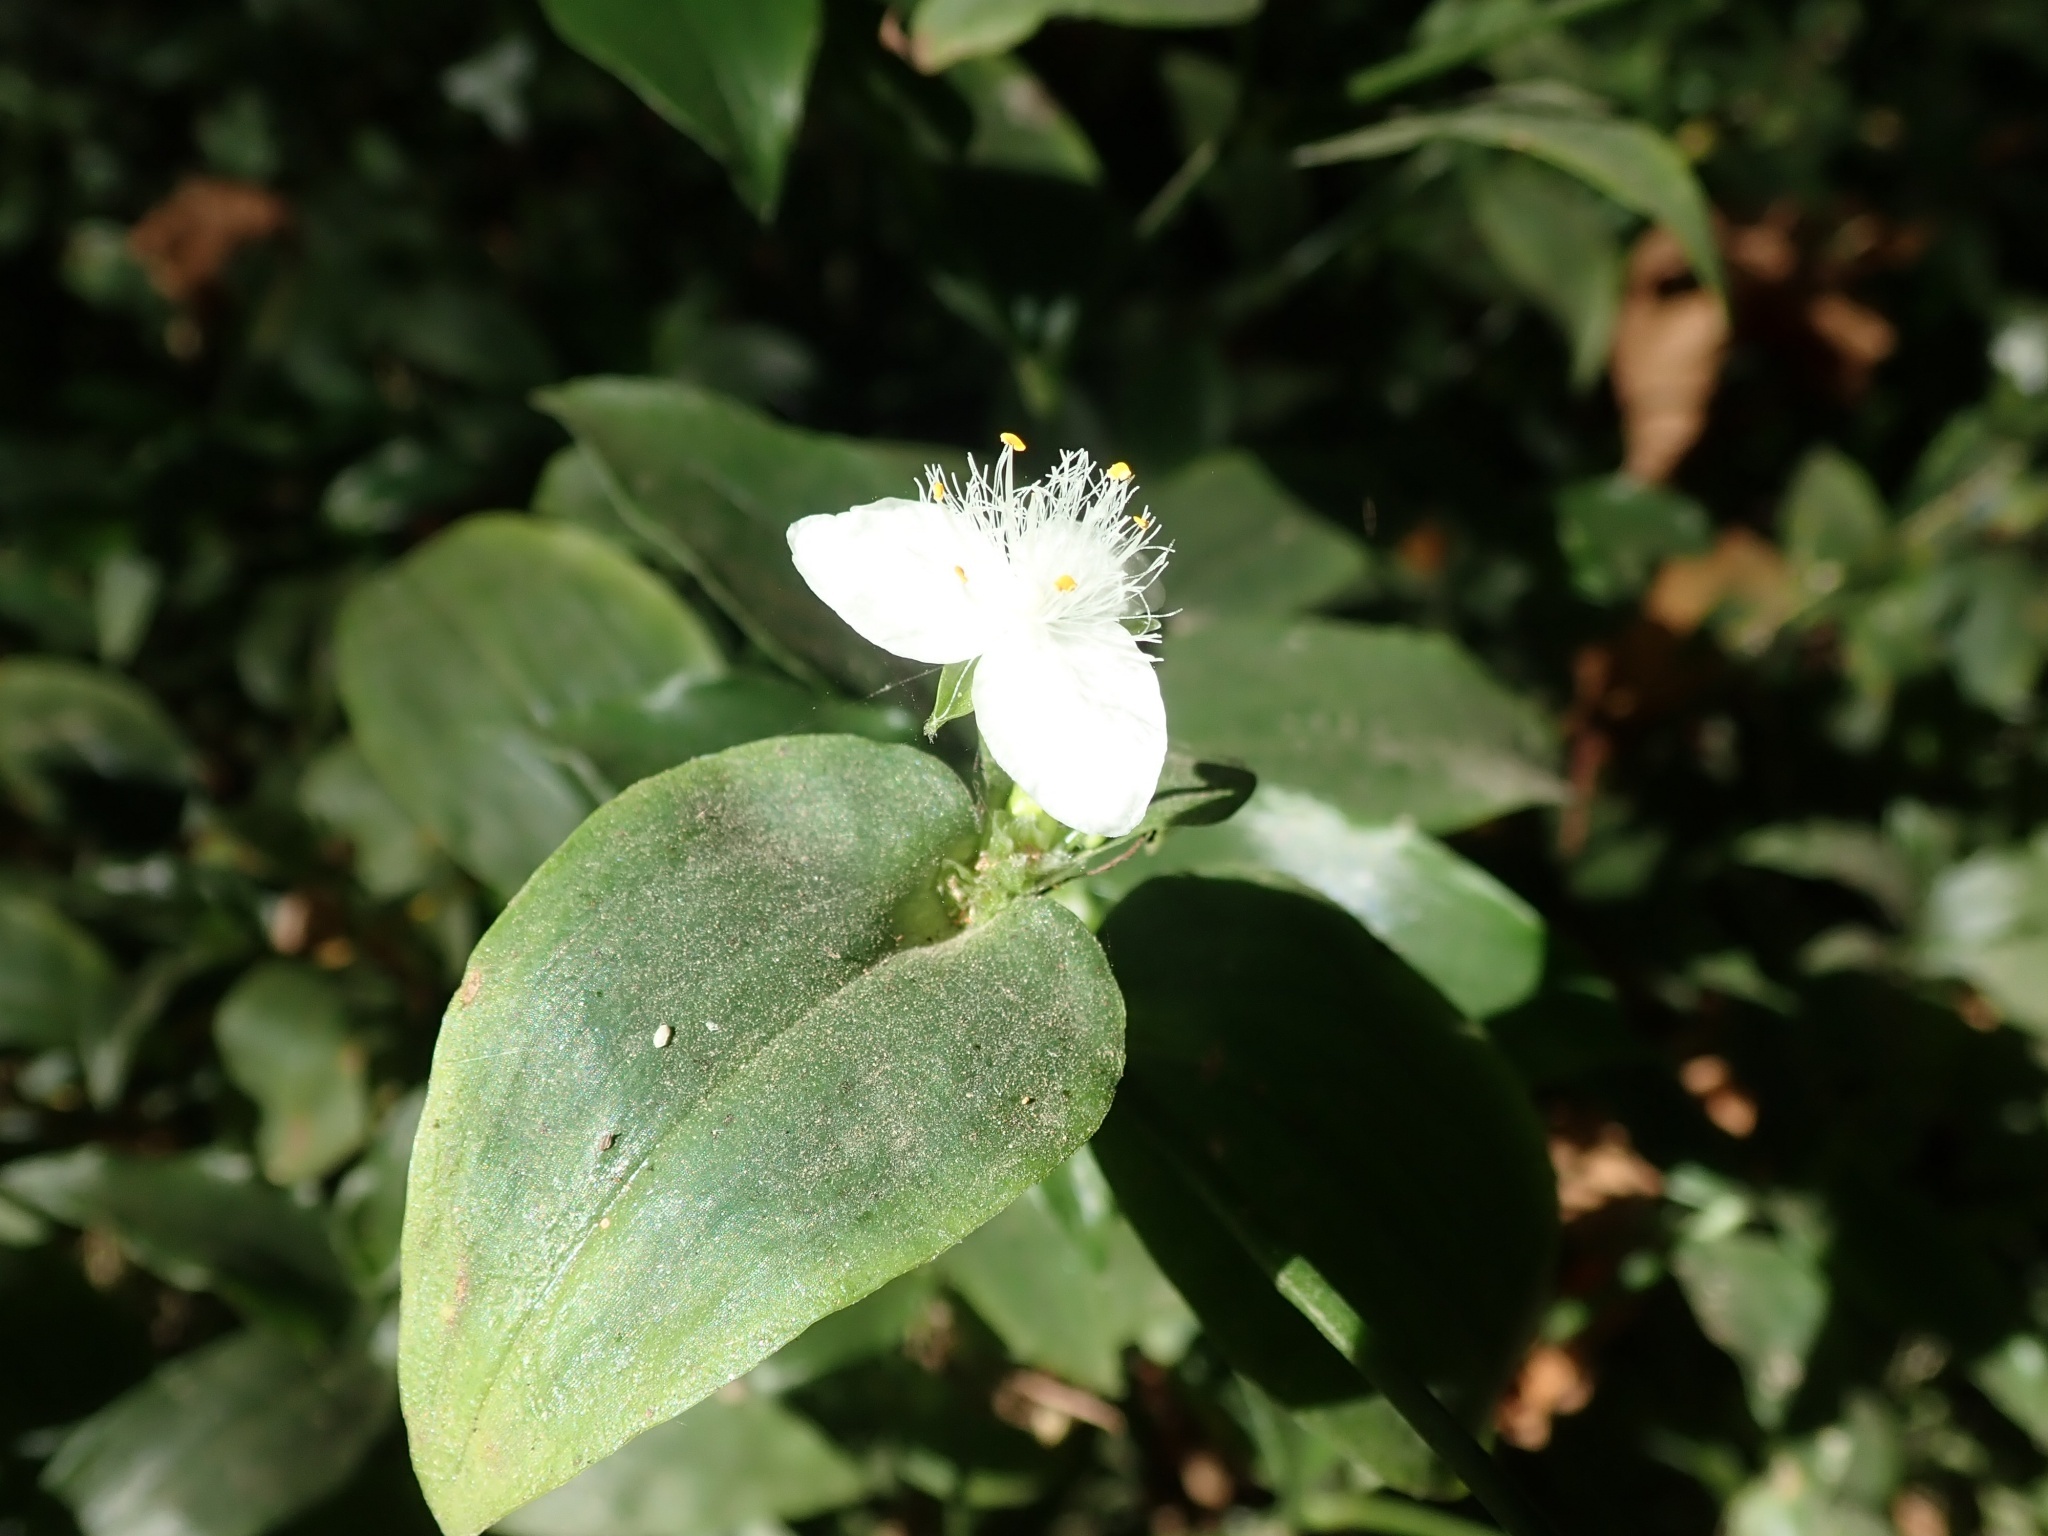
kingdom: Plantae
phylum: Tracheophyta
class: Liliopsida
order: Commelinales
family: Commelinaceae
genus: Tradescantia
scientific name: Tradescantia fluminensis
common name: Wandering-jew
